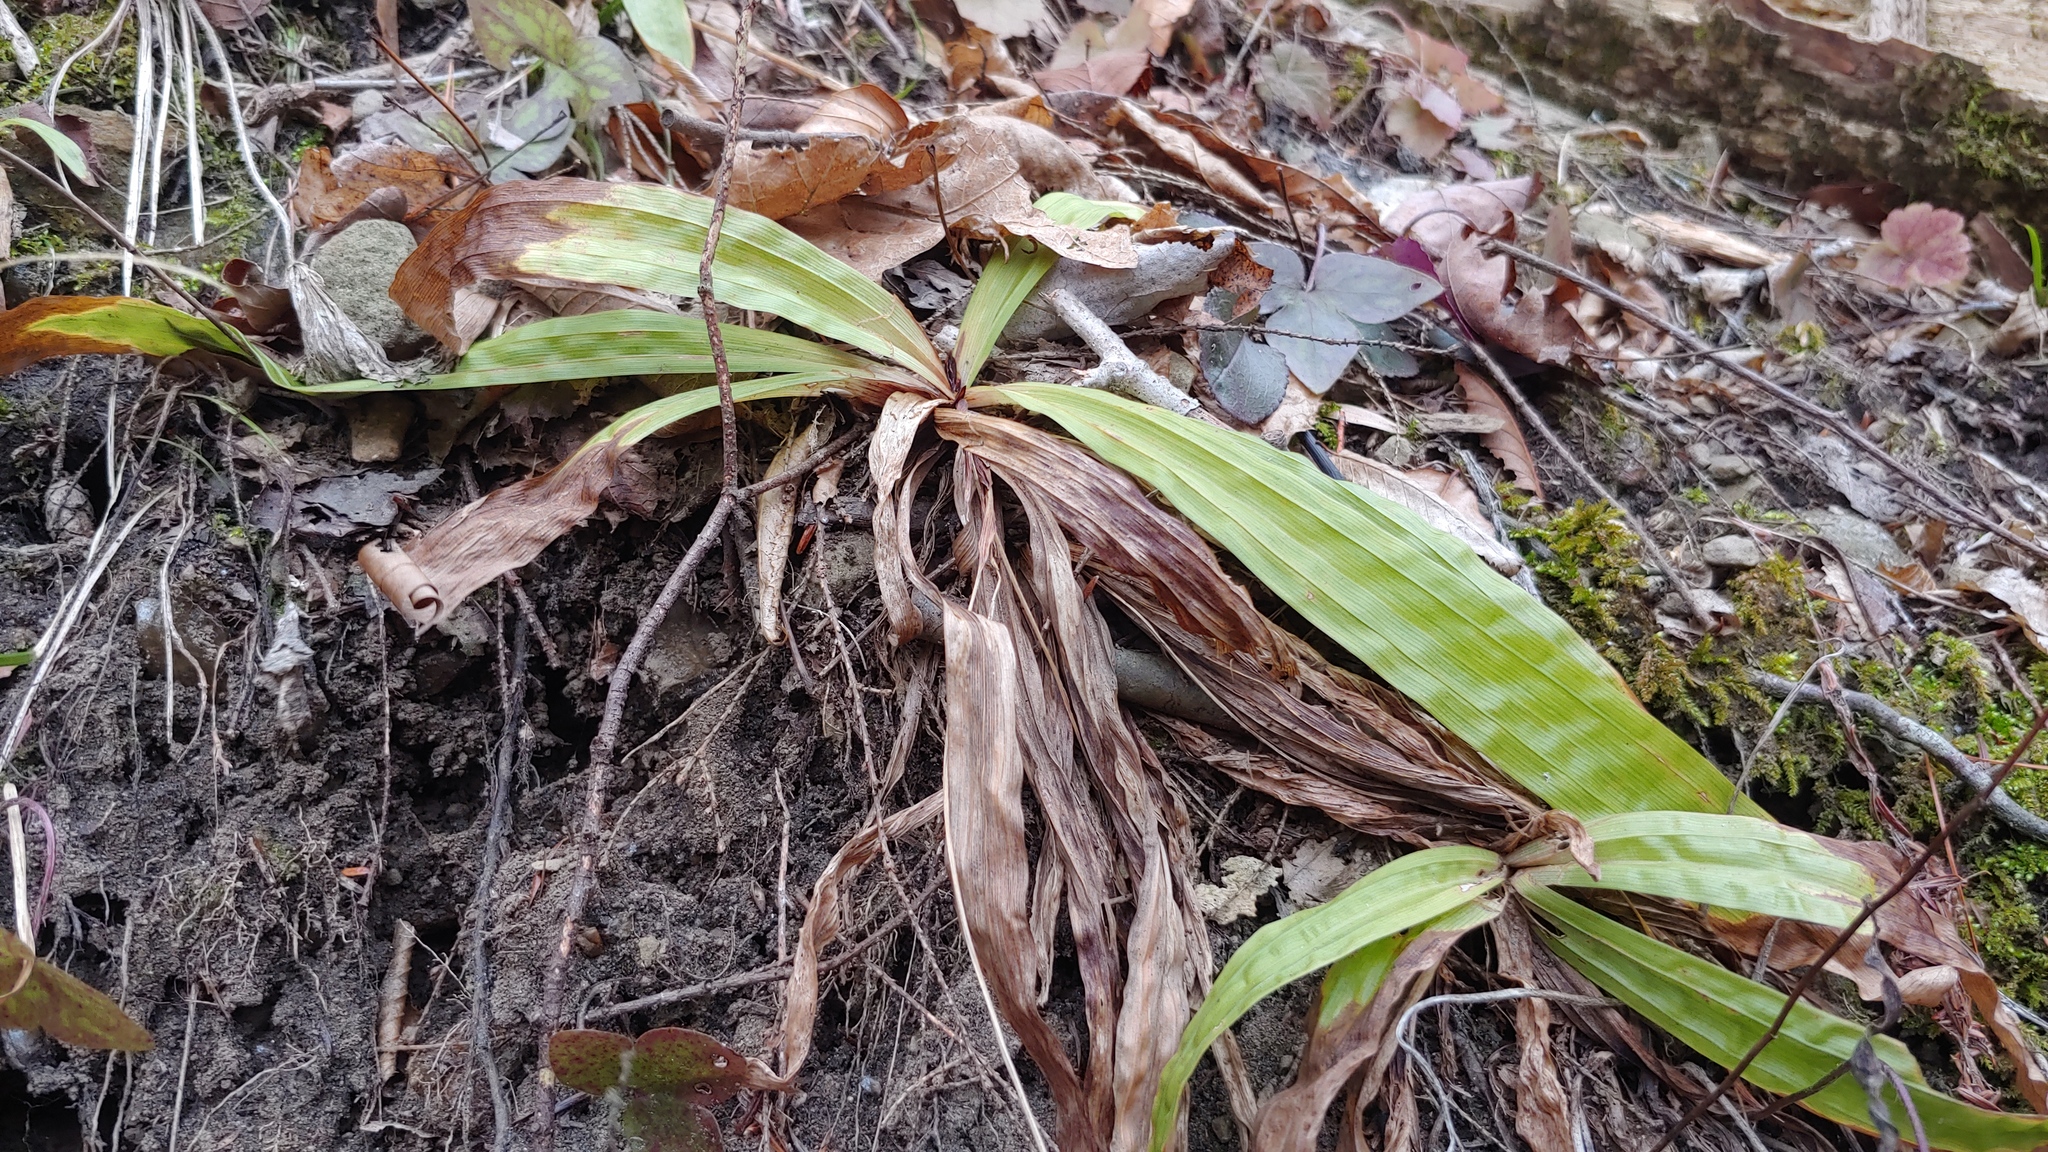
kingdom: Plantae
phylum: Tracheophyta
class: Liliopsida
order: Poales
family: Cyperaceae
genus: Carex
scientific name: Carex plantaginea
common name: Plantain-leaved sedge
